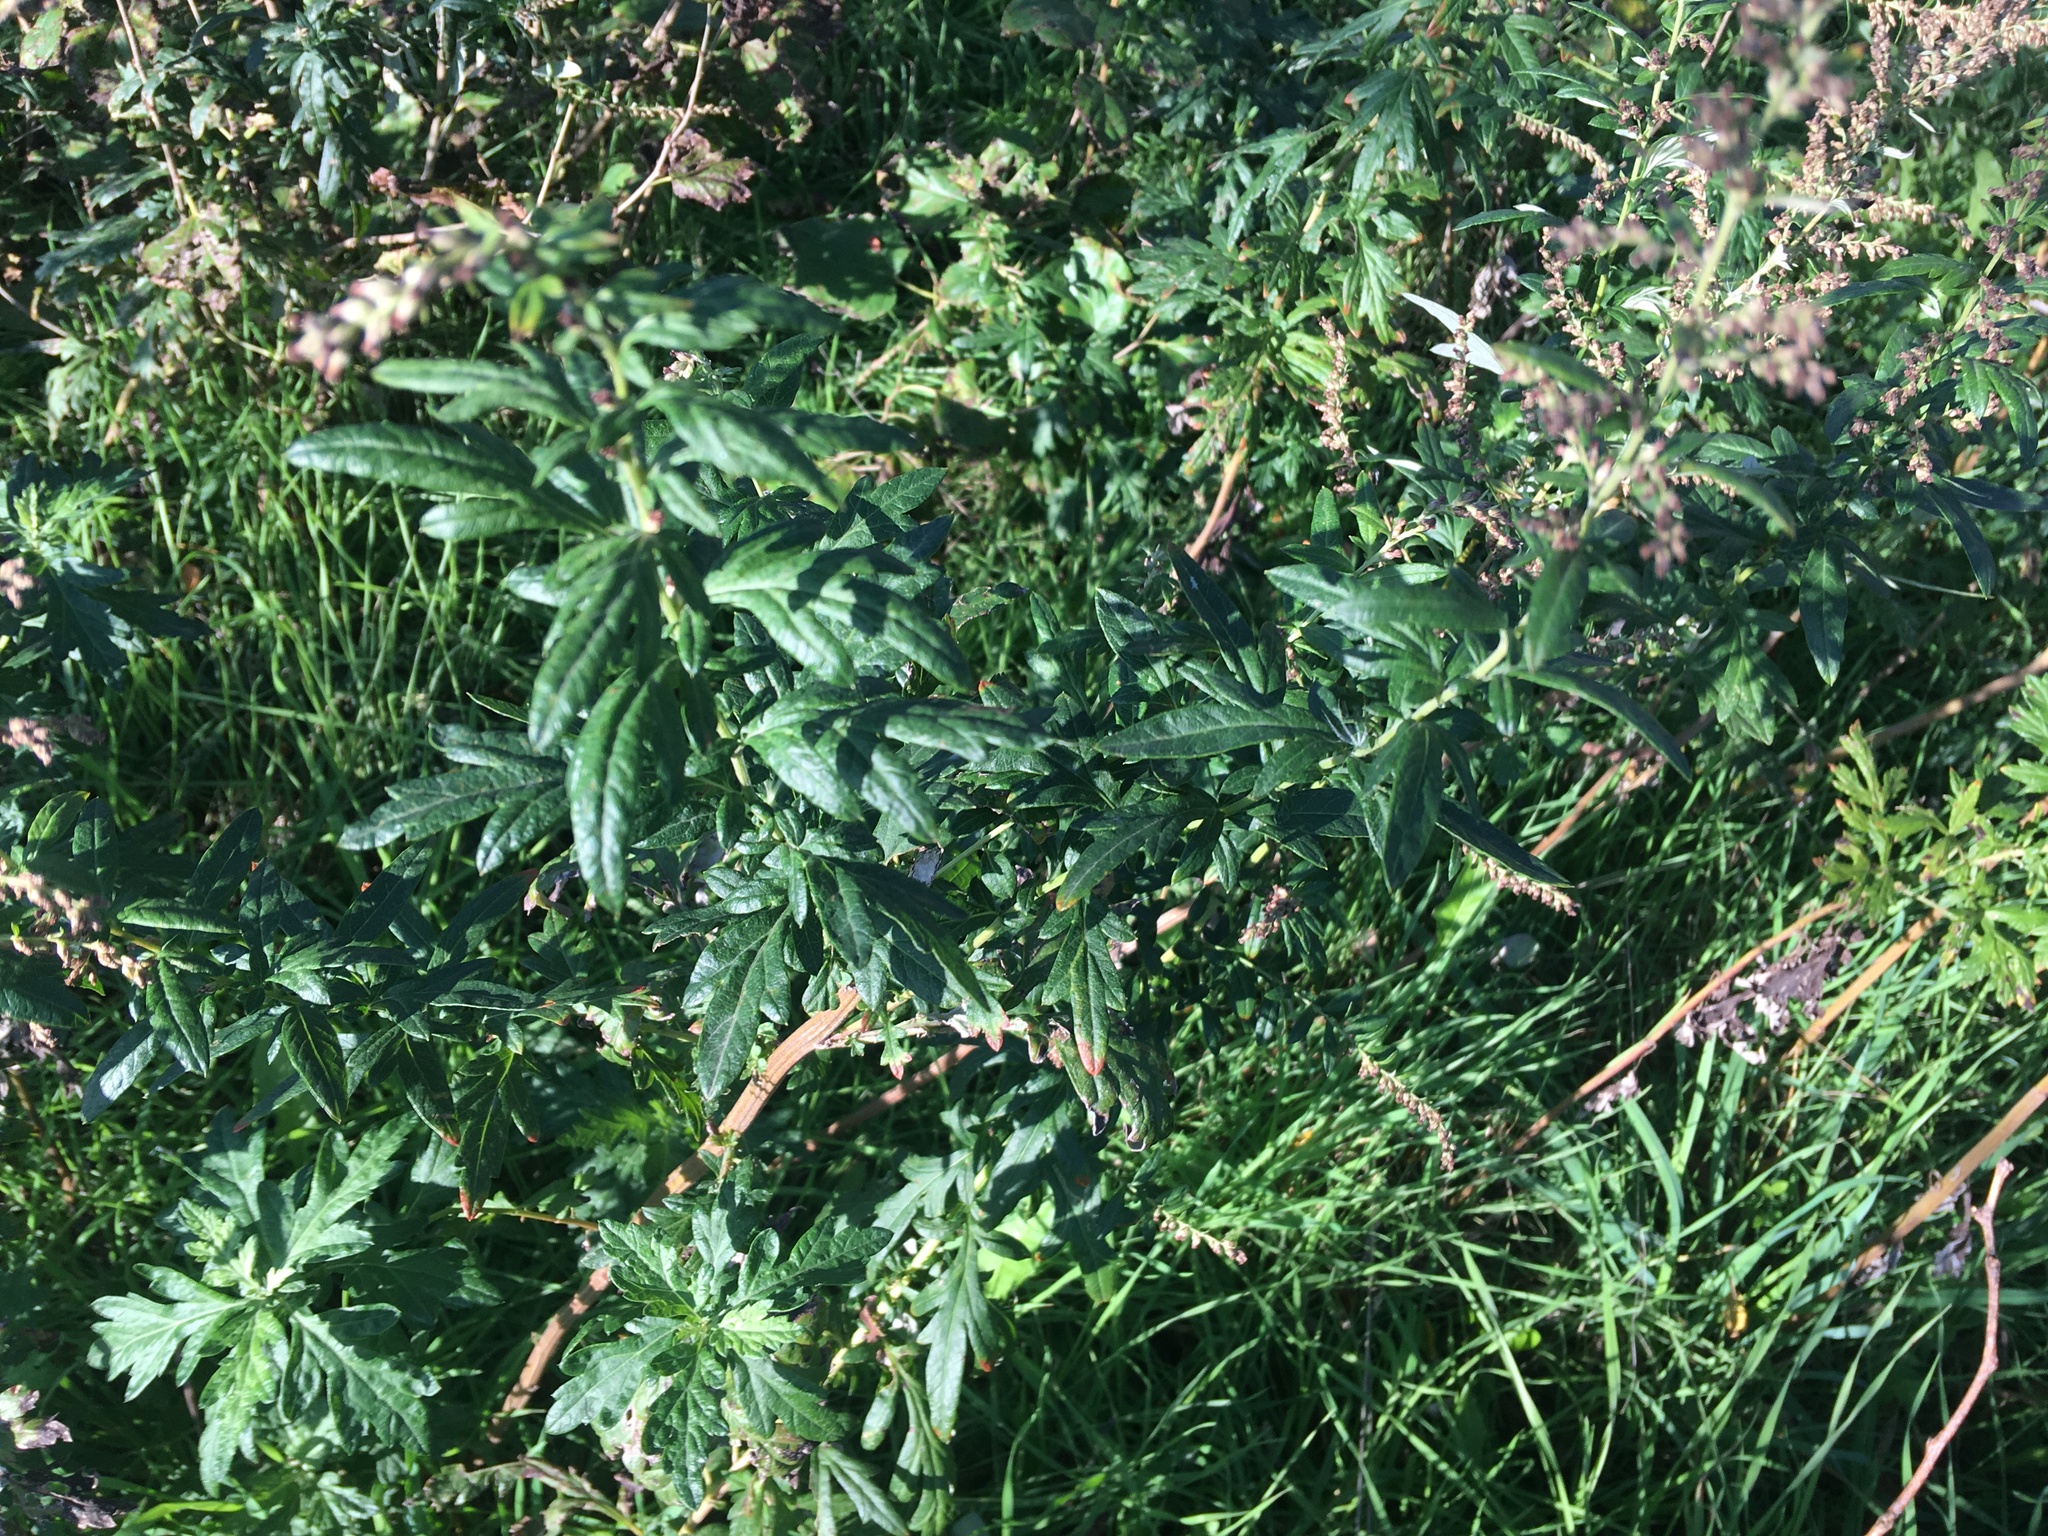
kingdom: Plantae
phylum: Tracheophyta
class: Magnoliopsida
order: Asterales
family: Asteraceae
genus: Artemisia
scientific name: Artemisia vulgaris
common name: Mugwort
